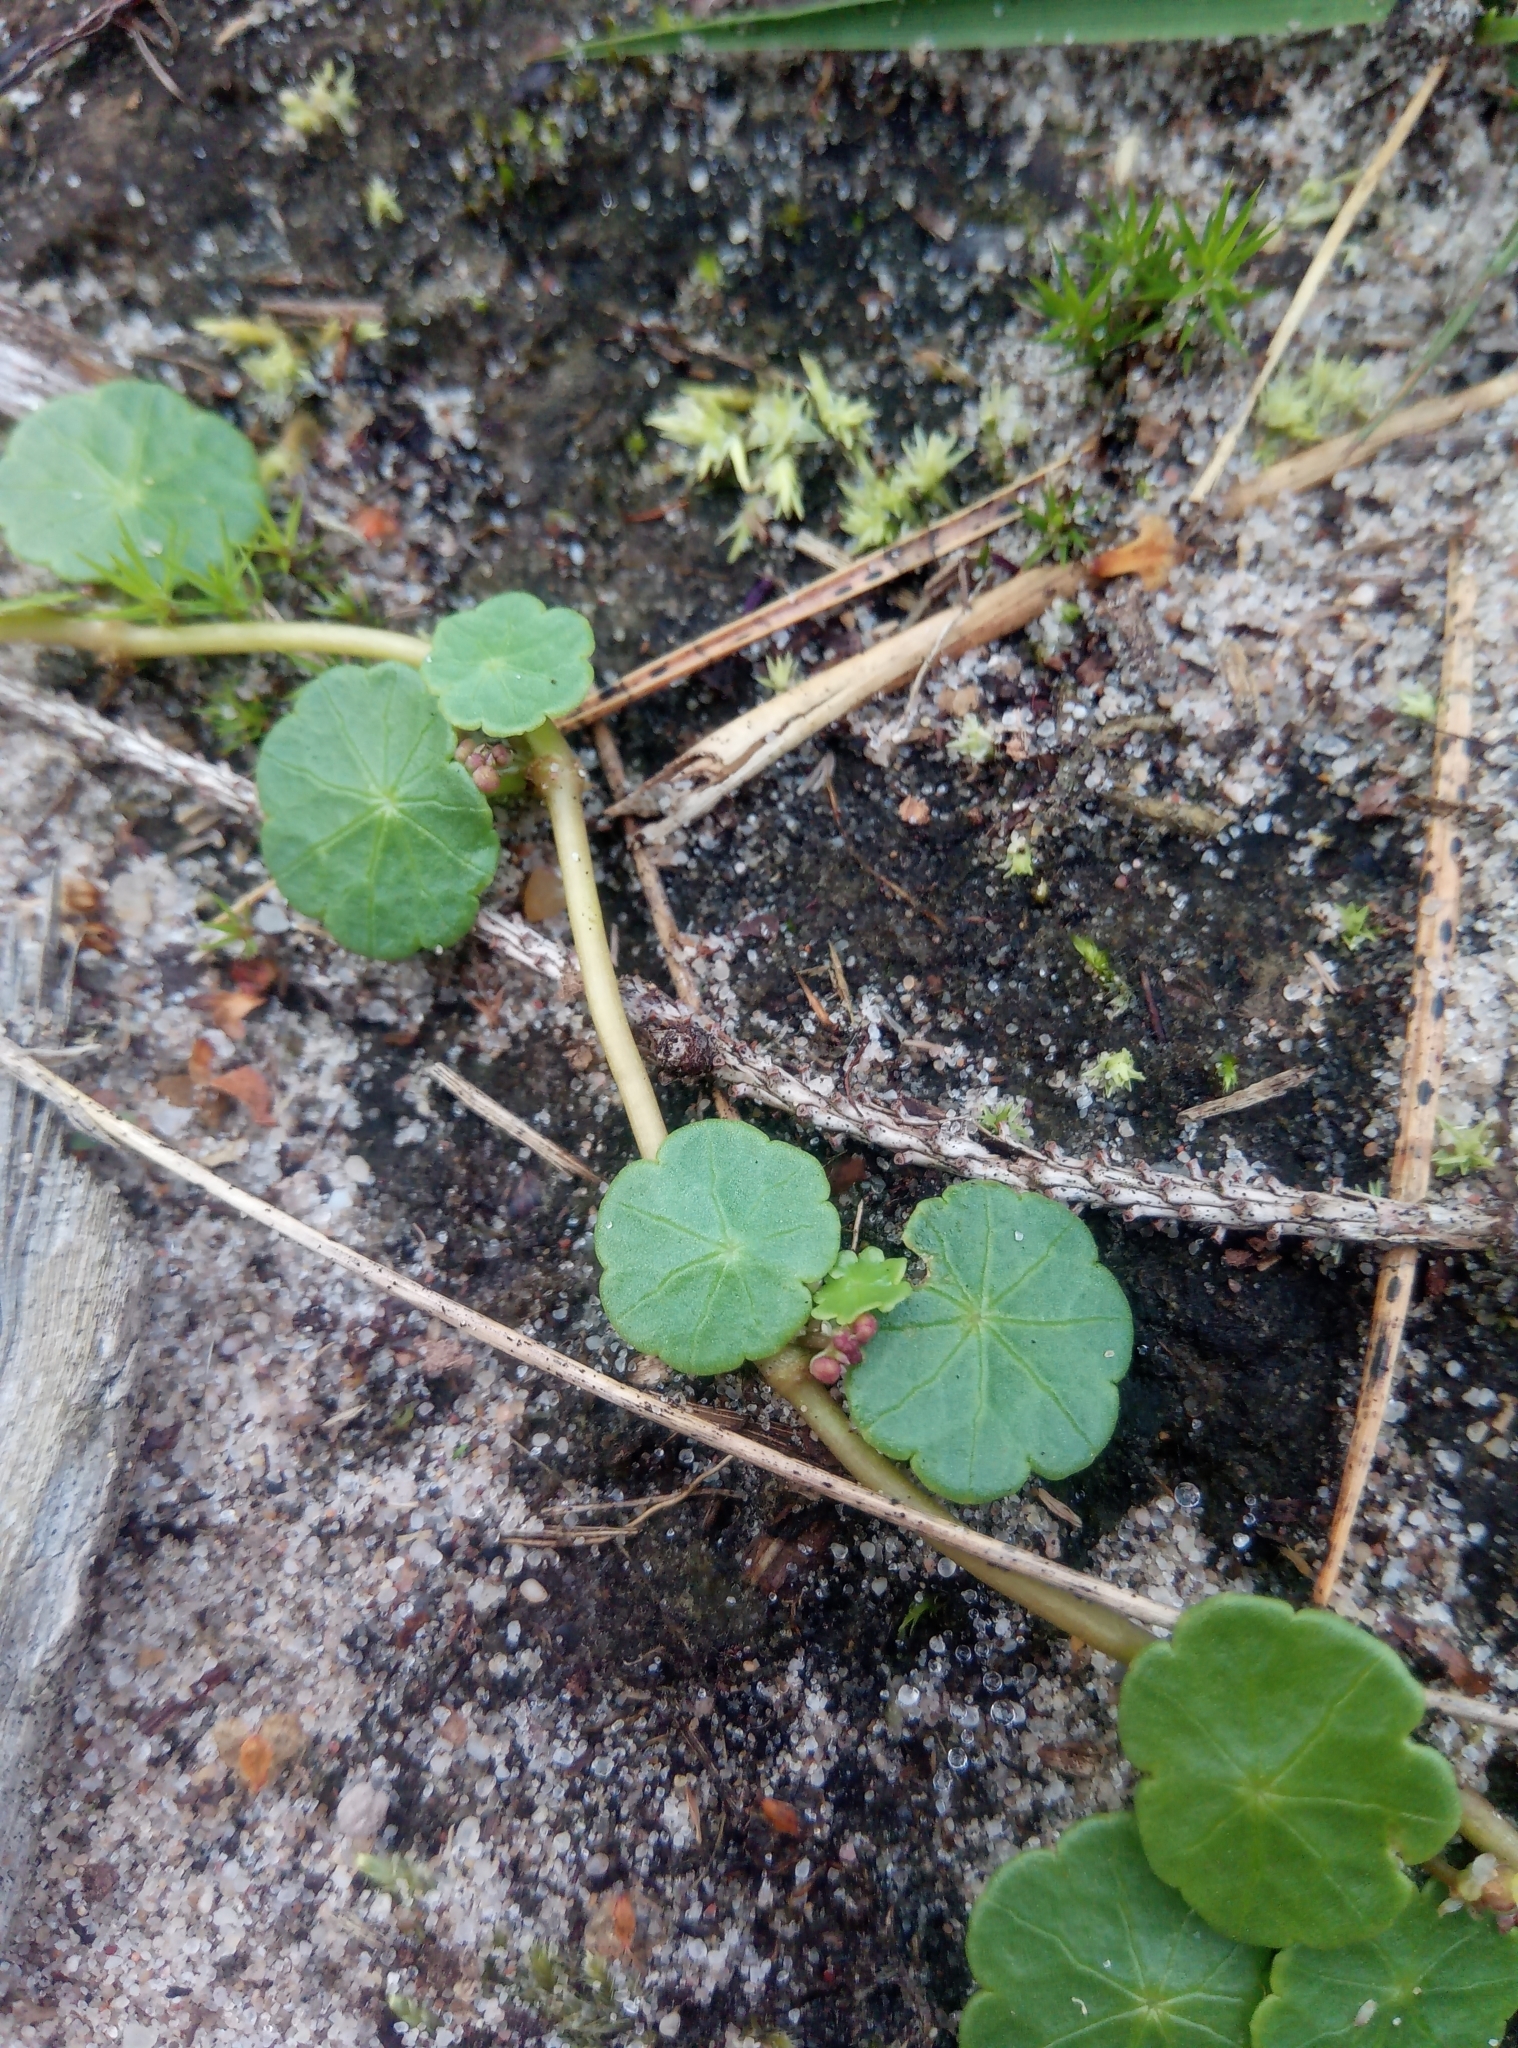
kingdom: Plantae
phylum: Tracheophyta
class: Magnoliopsida
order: Apiales
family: Araliaceae
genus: Hydrocotyle
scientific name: Hydrocotyle vulgaris
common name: Marsh pennywort
